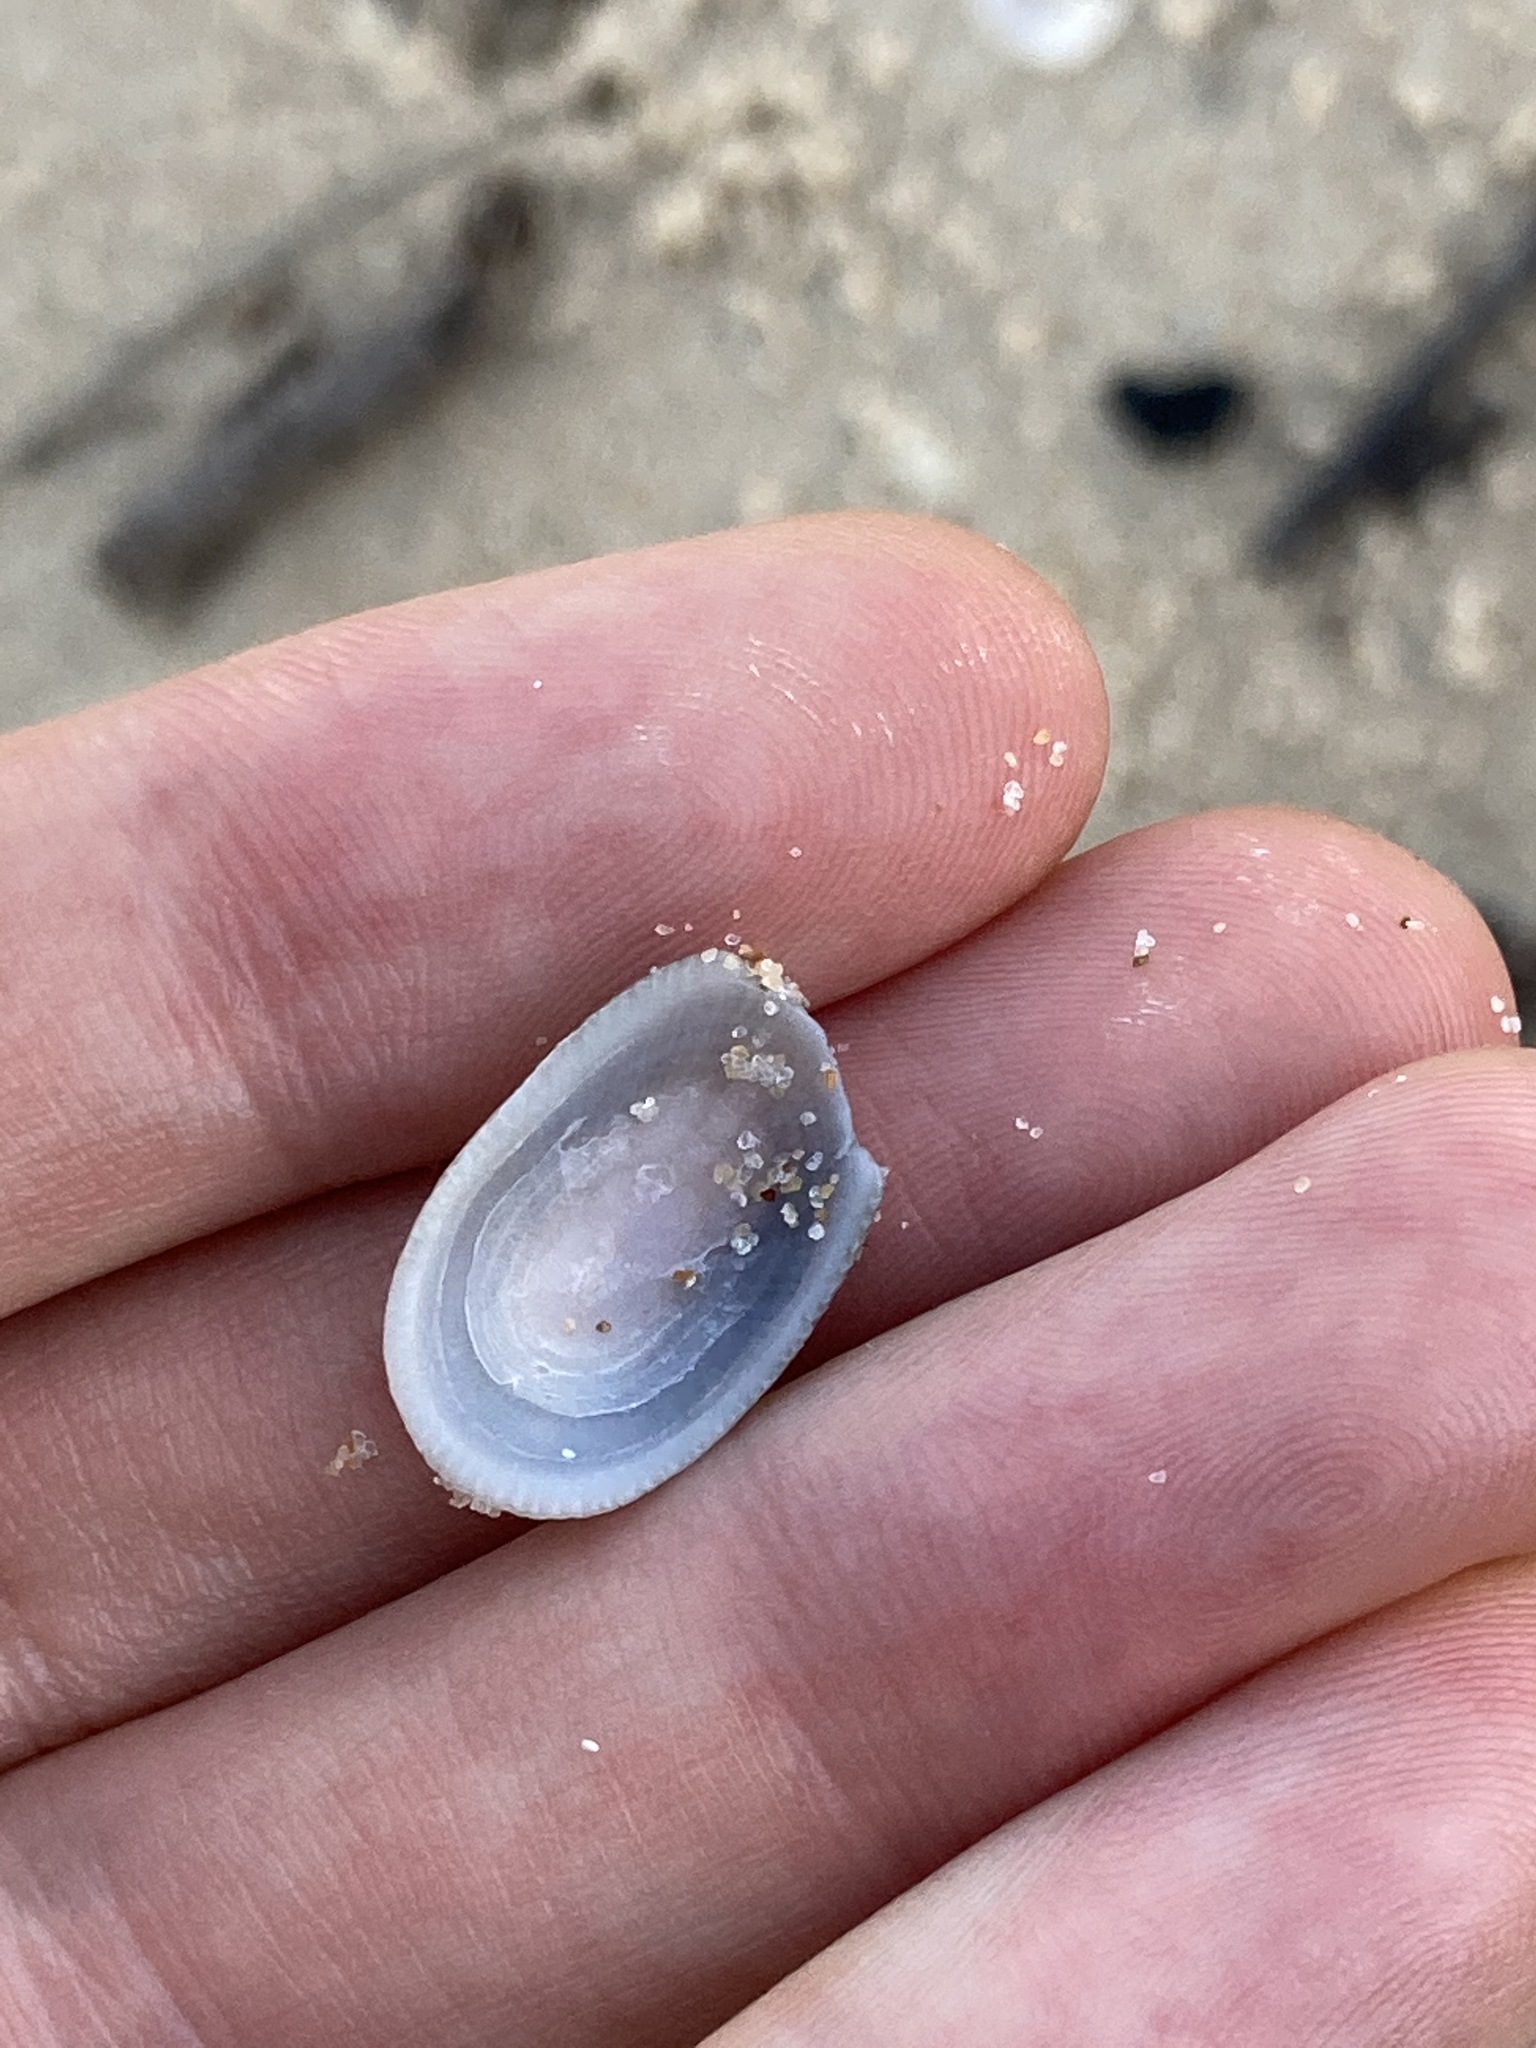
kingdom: Animalia
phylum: Mollusca
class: Gastropoda
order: Lepetellida
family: Fissurellidae
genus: Tugali
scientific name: Tugali parmophoidea
